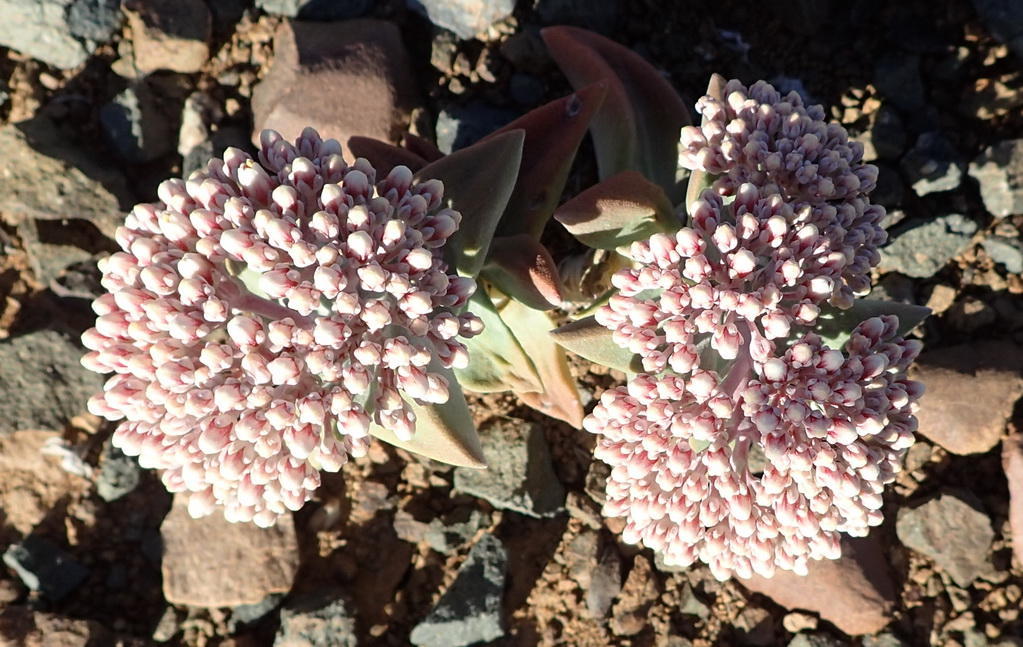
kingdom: Plantae
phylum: Tracheophyta
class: Magnoliopsida
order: Saxifragales
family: Crassulaceae
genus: Crassula
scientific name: Crassula deltoidea
